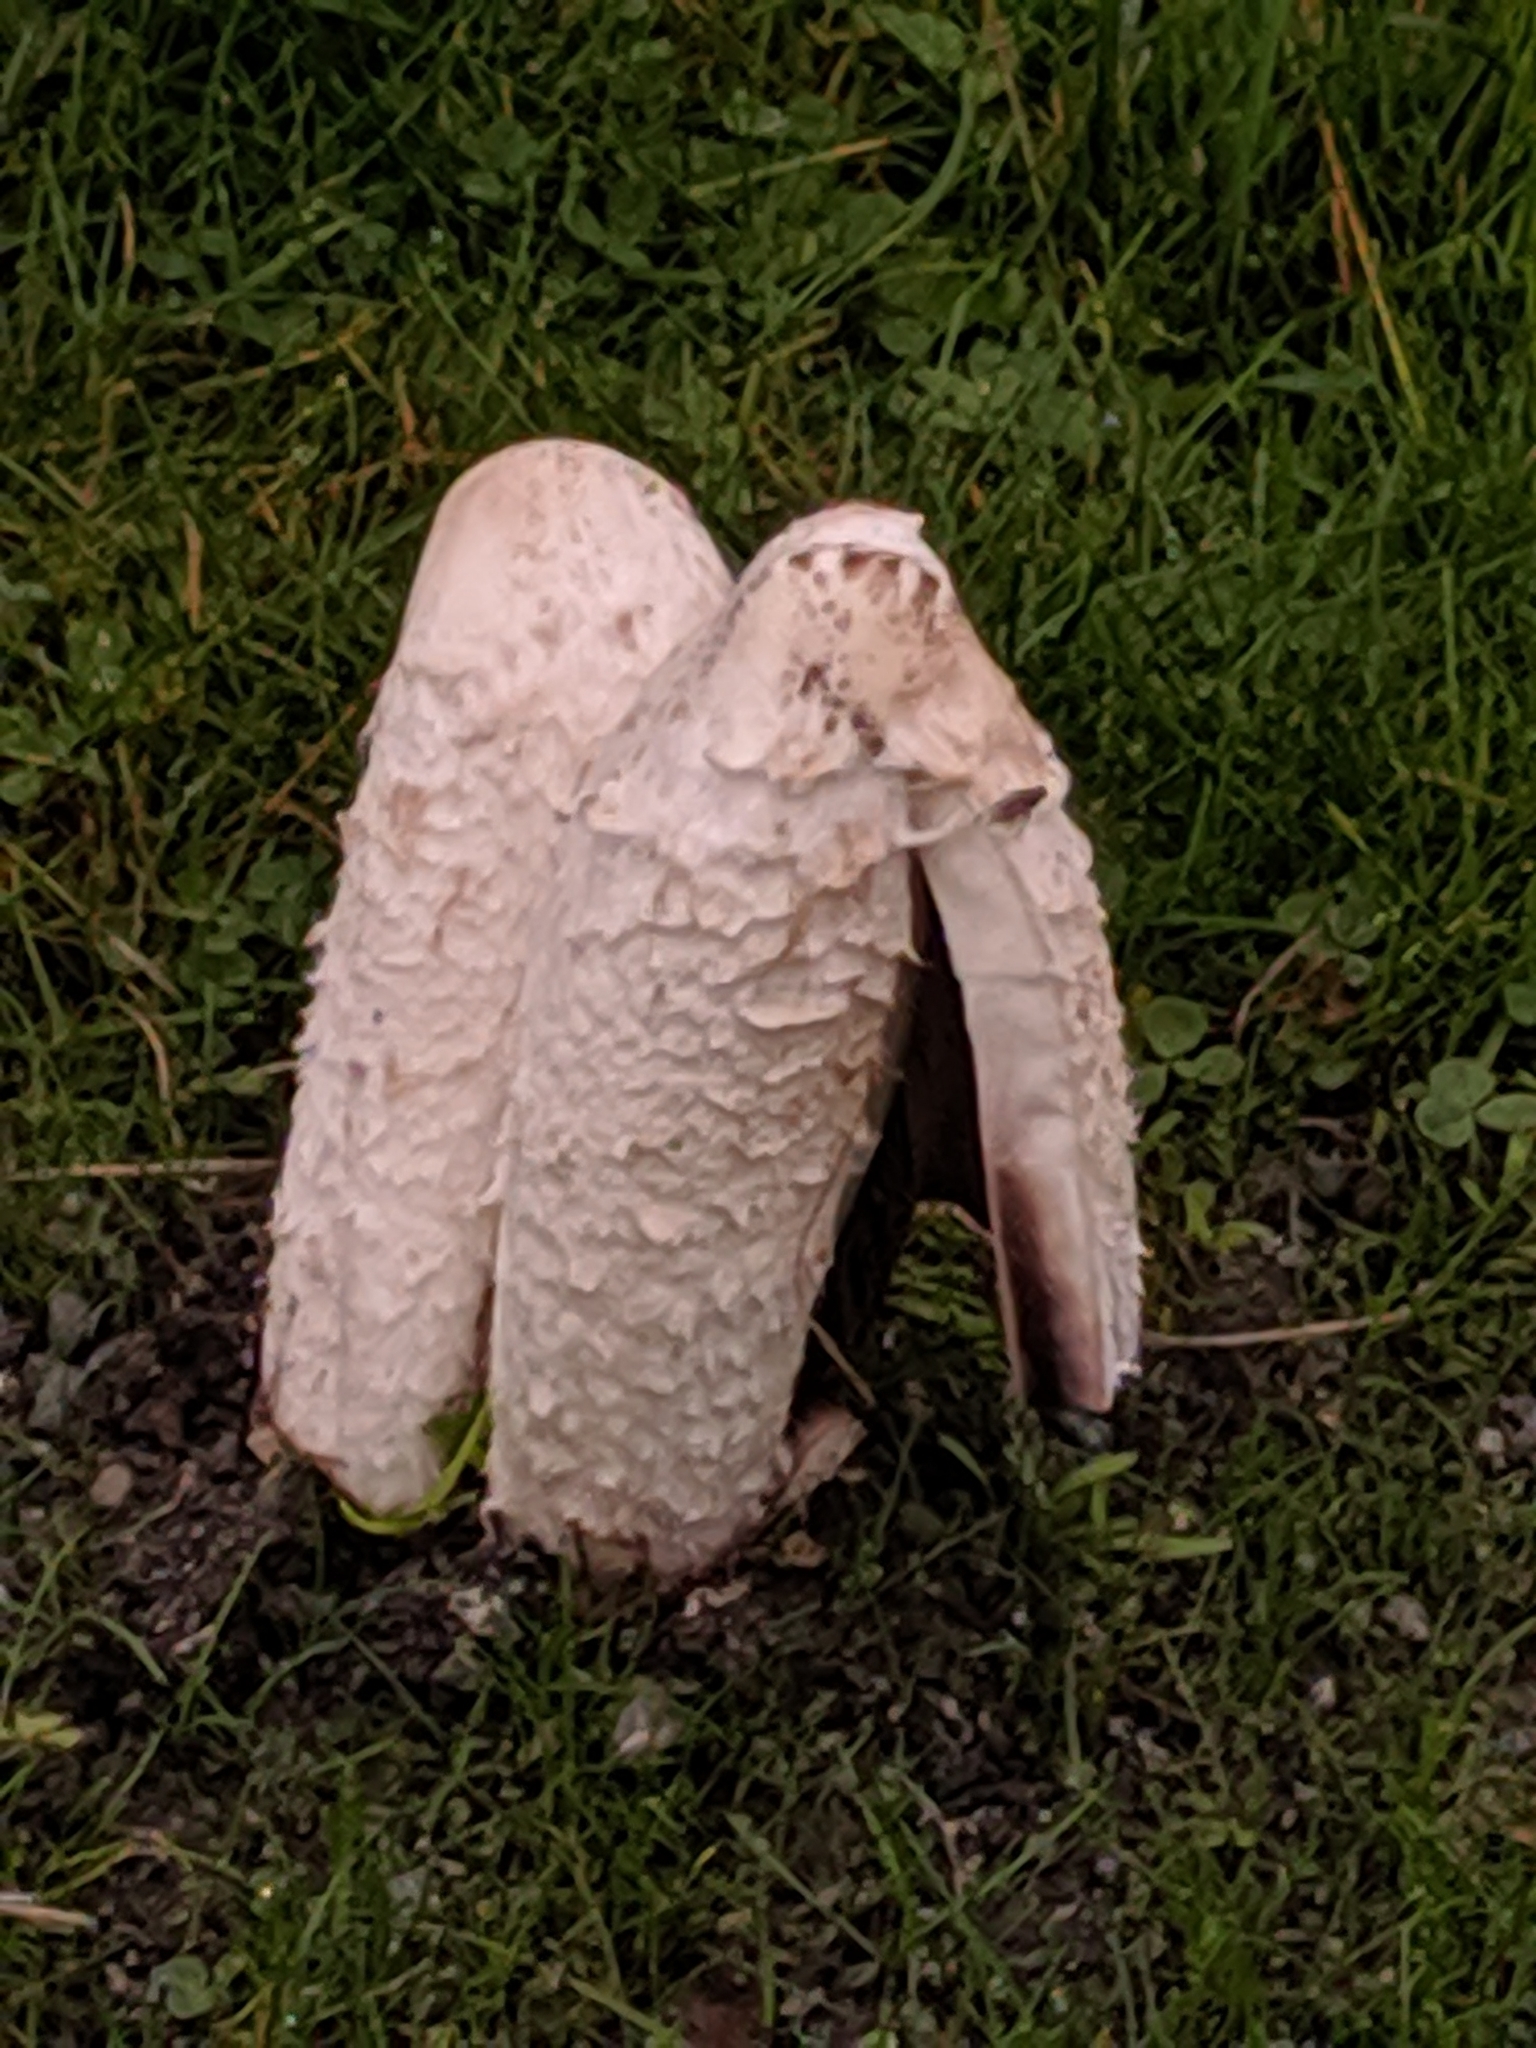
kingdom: Fungi
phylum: Basidiomycota
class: Agaricomycetes
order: Agaricales
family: Agaricaceae
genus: Coprinus
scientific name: Coprinus comatus
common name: Lawyer's wig
